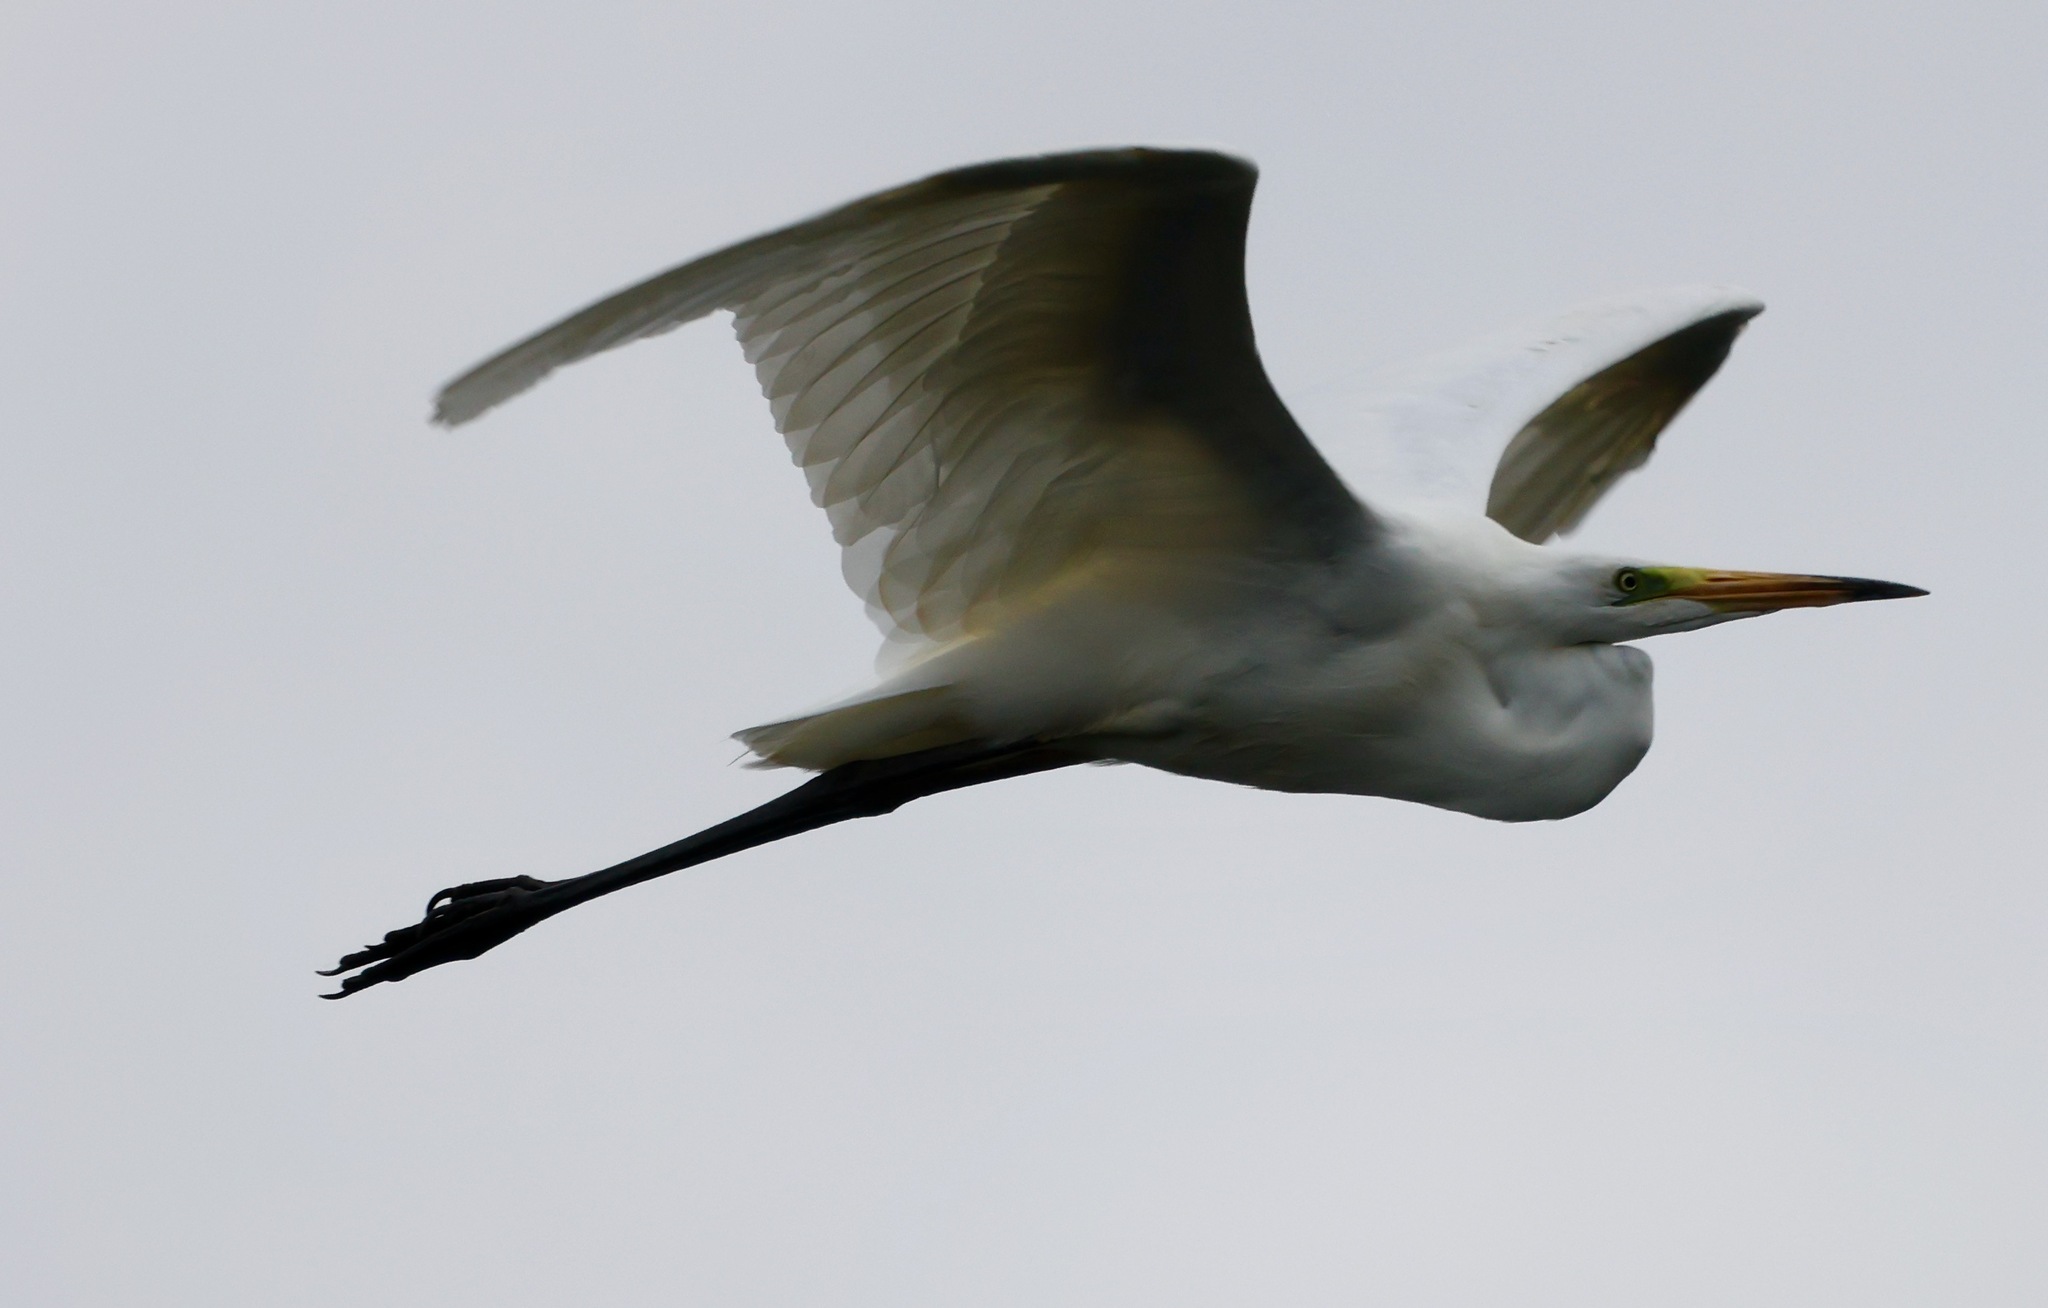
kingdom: Animalia
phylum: Chordata
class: Aves
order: Pelecaniformes
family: Ardeidae
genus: Ardea
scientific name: Ardea alba
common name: Great egret
